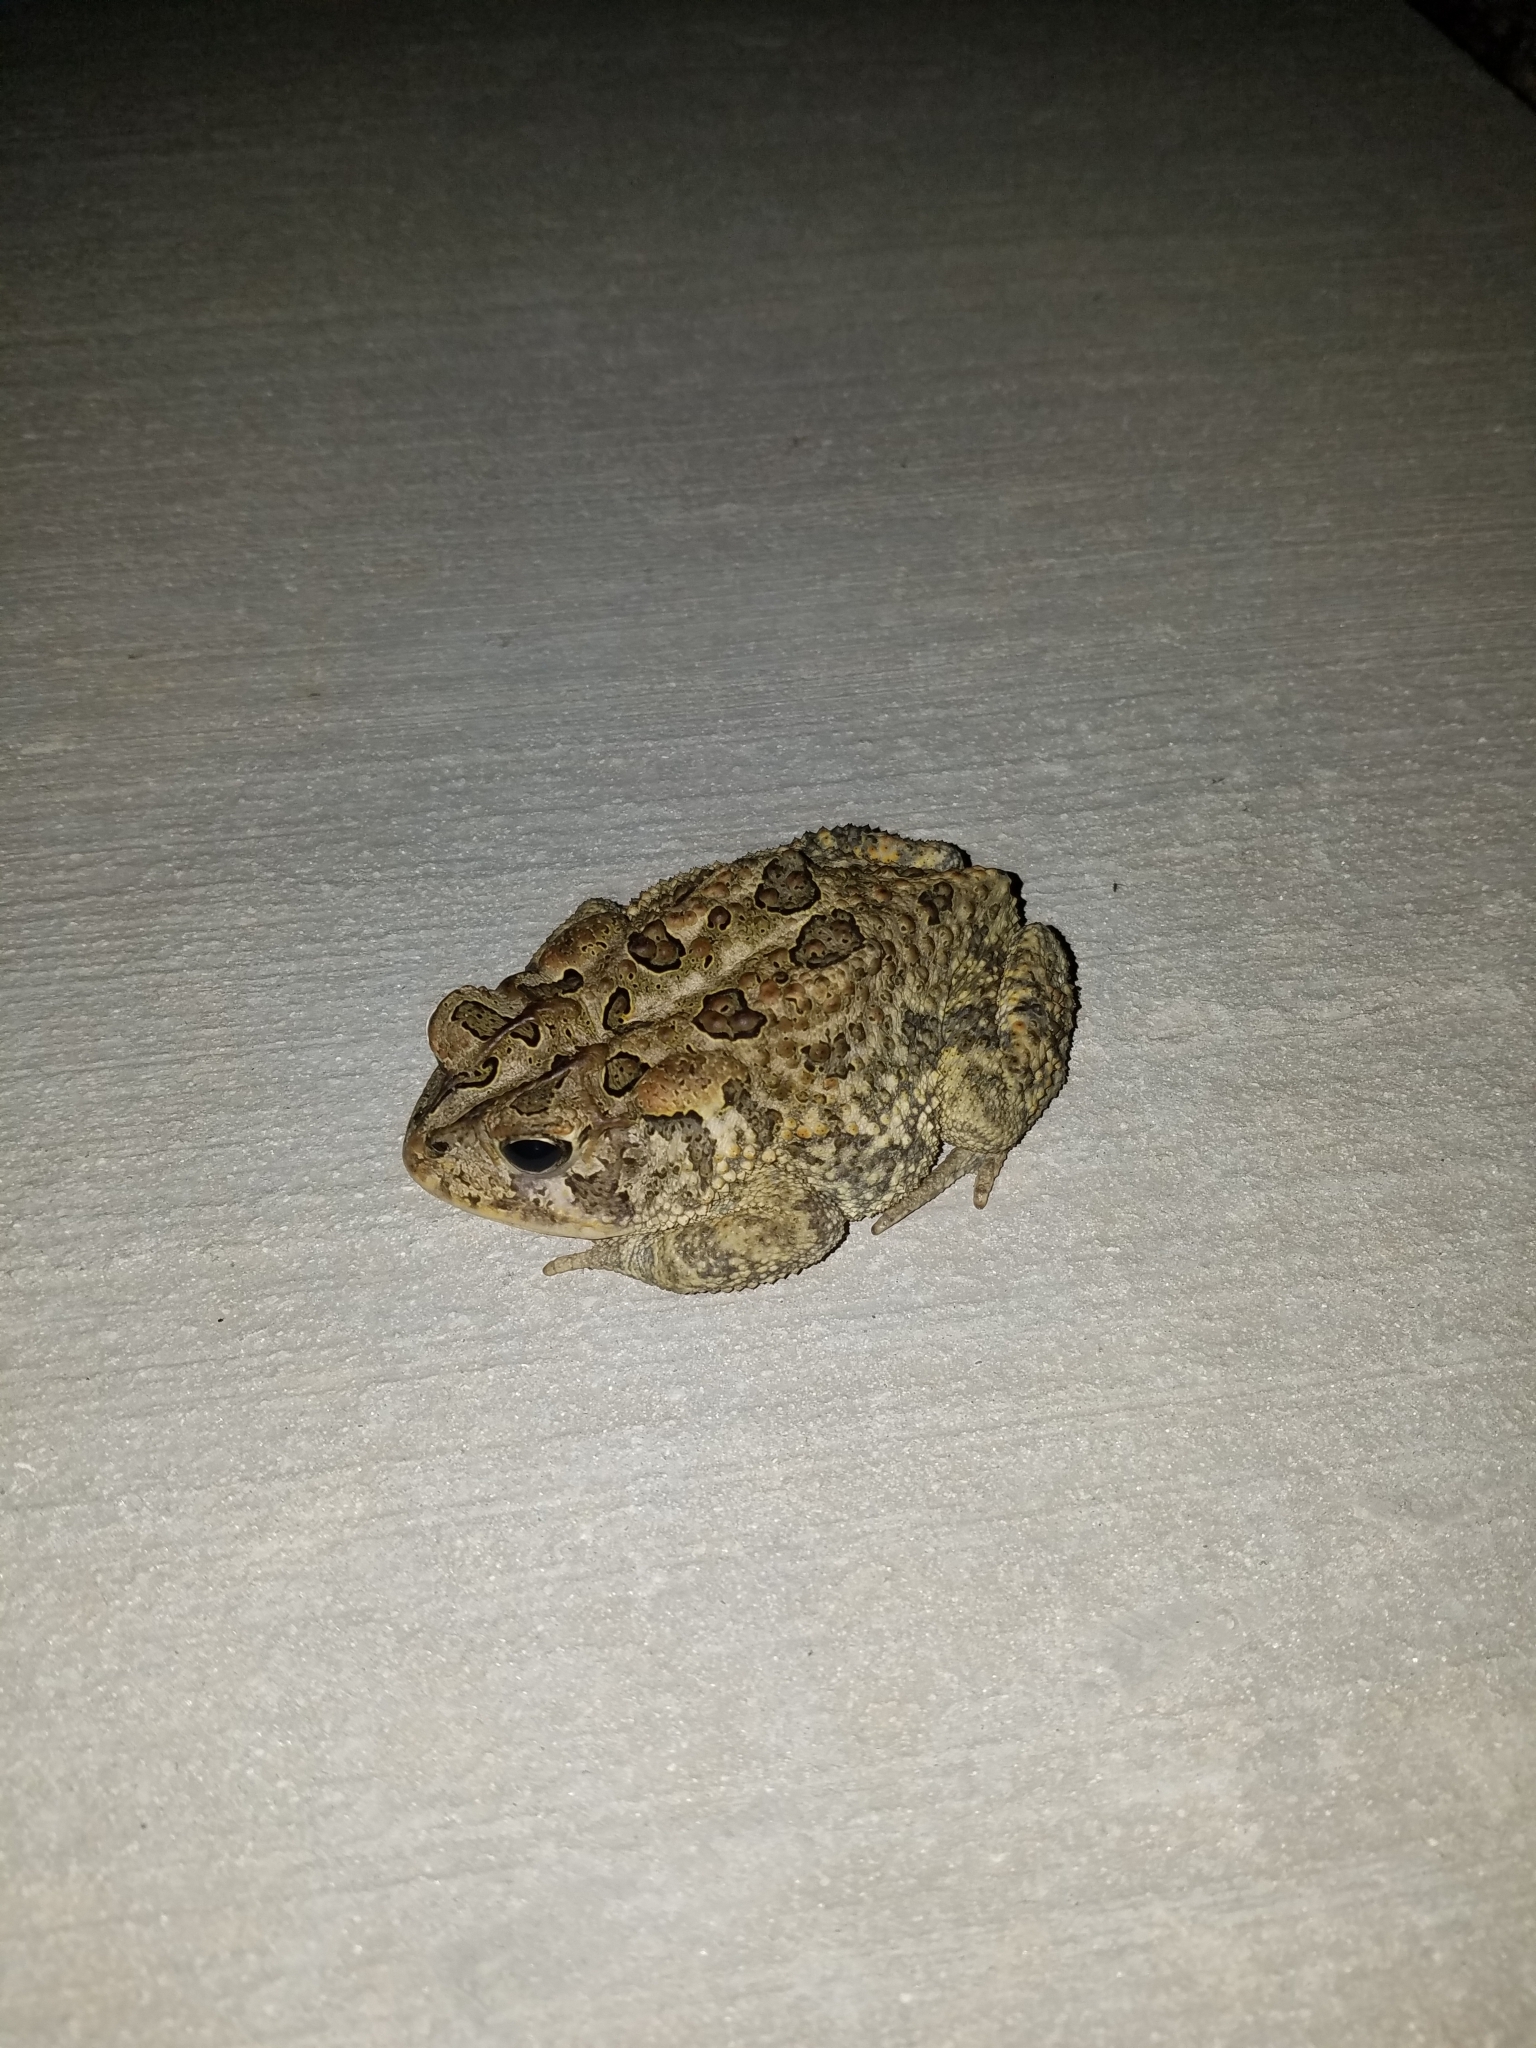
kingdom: Animalia
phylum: Chordata
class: Amphibia
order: Anura
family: Bufonidae
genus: Anaxyrus
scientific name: Anaxyrus terrestris
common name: Southern toad
